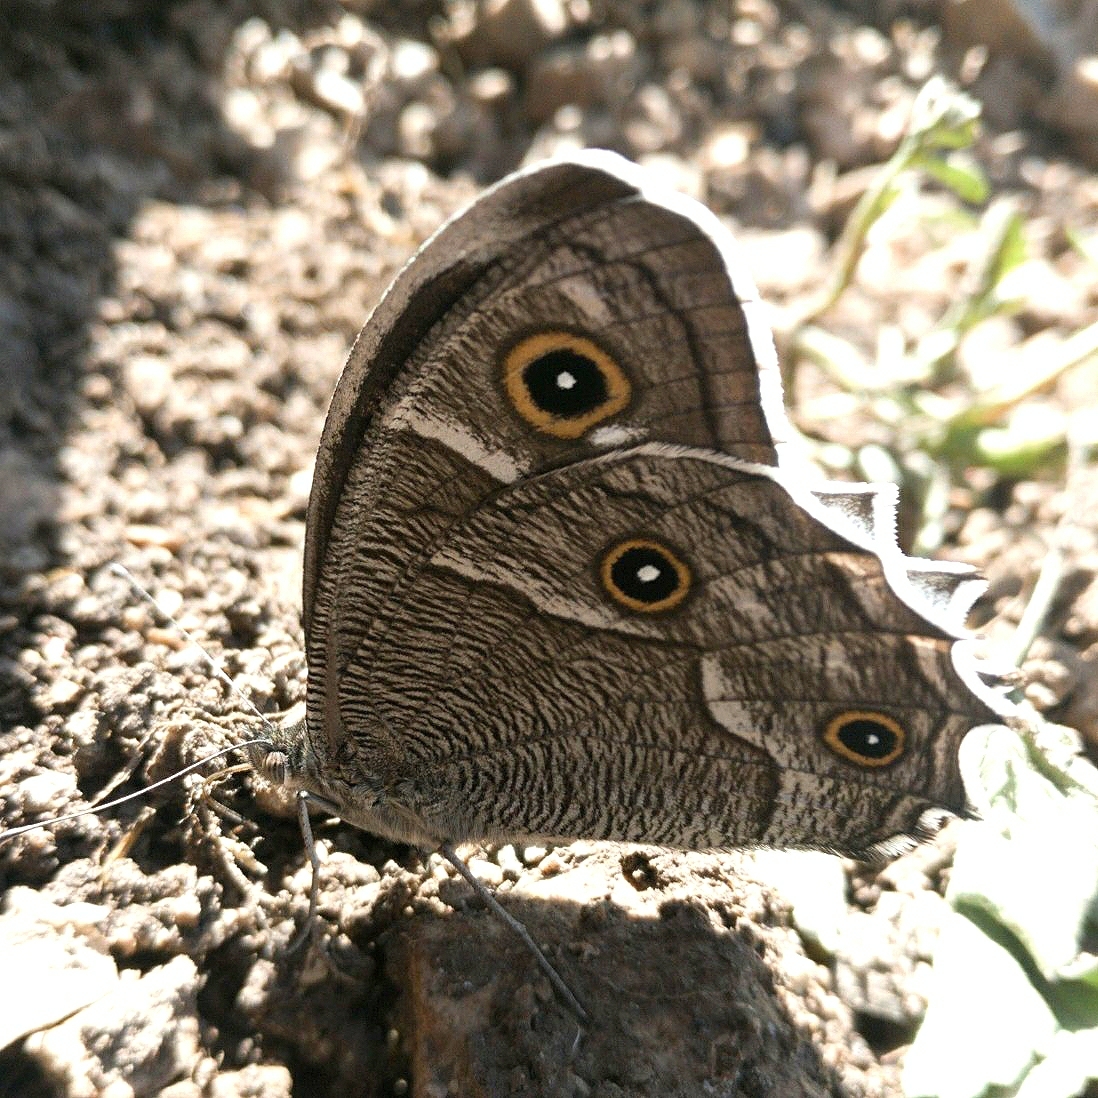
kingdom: Animalia
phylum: Arthropoda
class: Insecta
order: Lepidoptera
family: Nymphalidae
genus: Hipparchia
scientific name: Hipparchia parisatis
